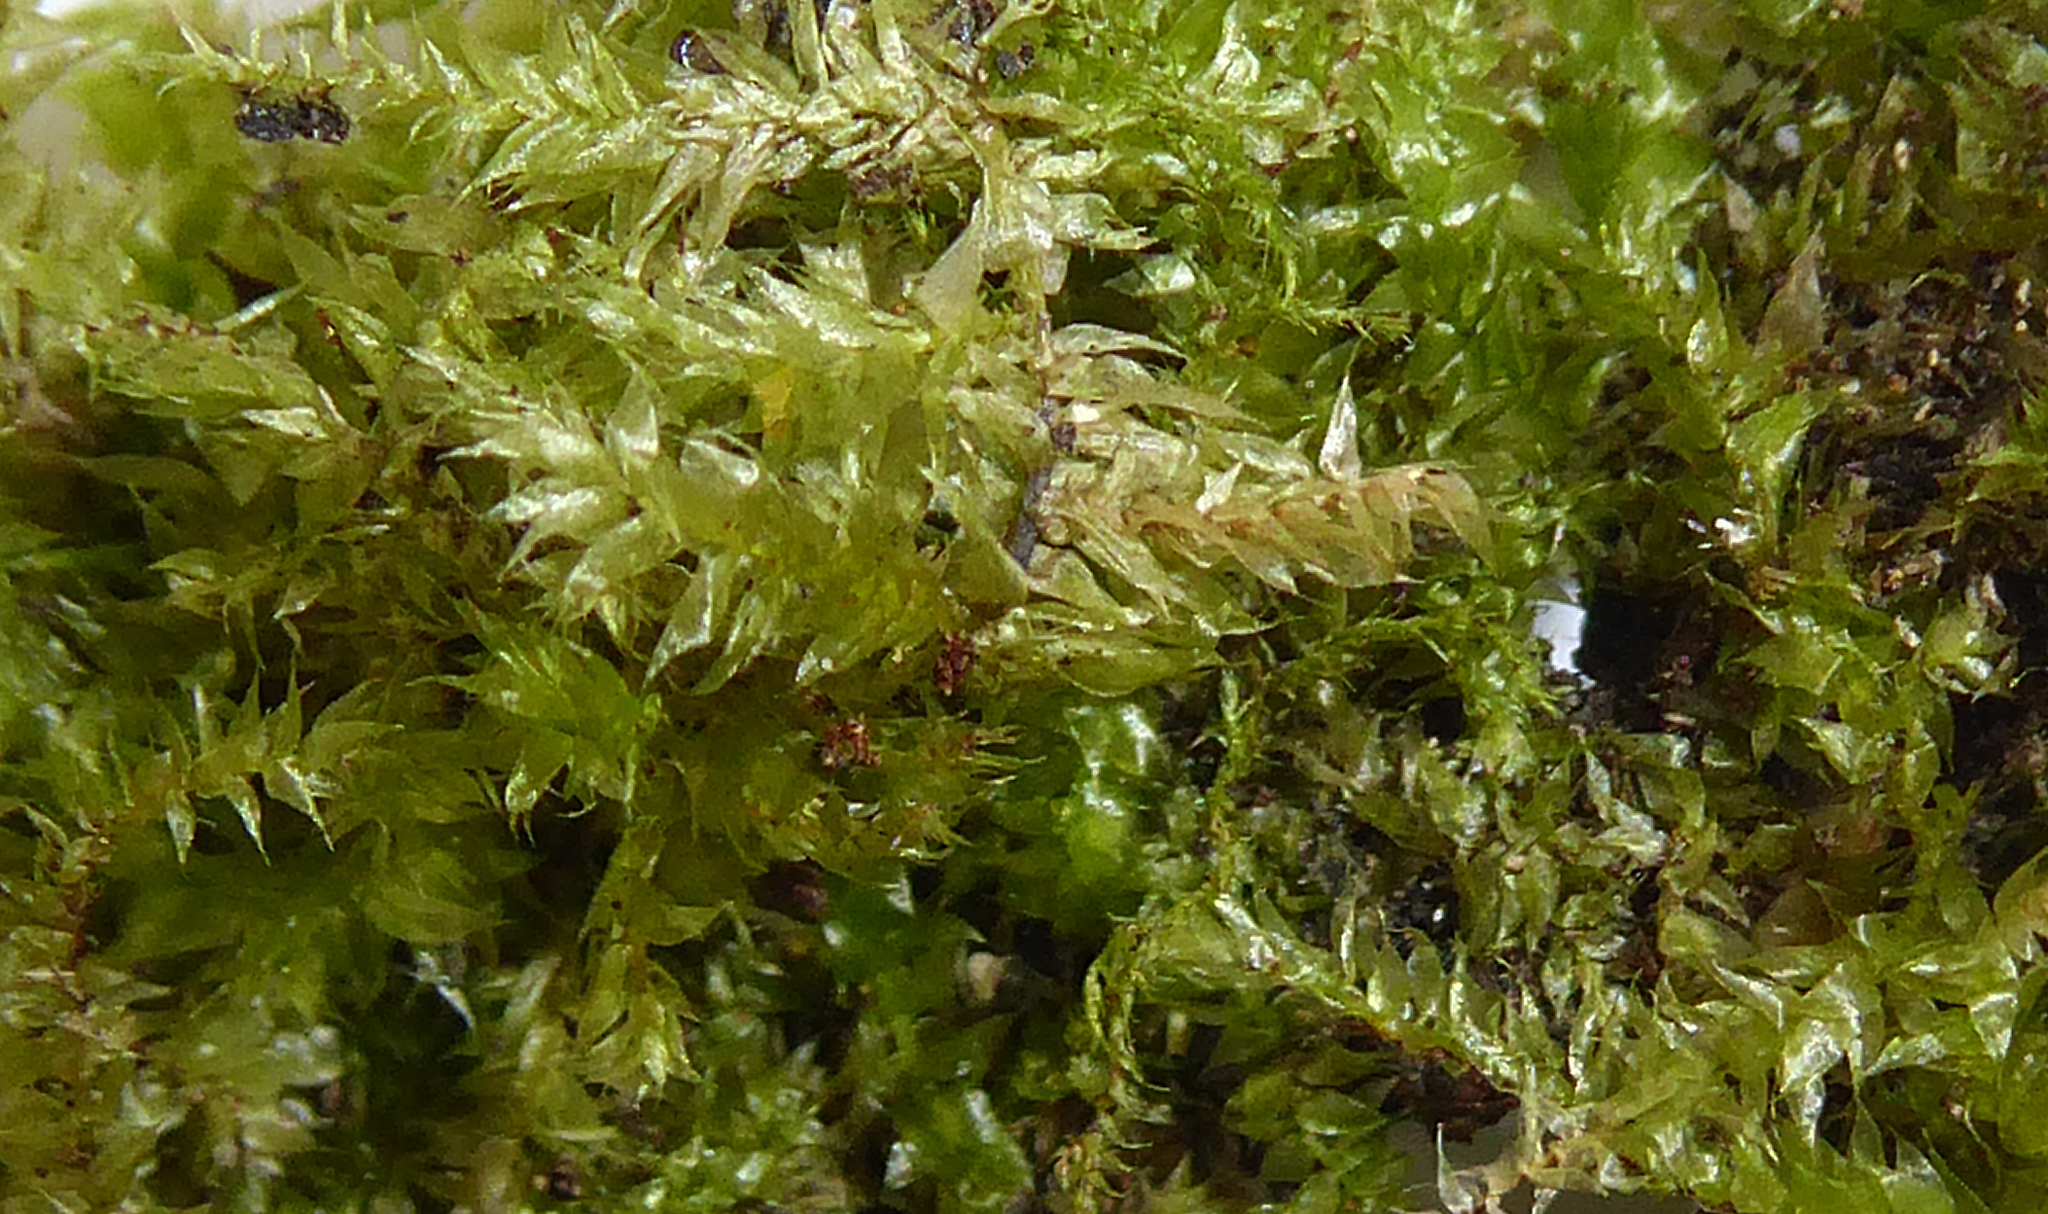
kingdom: Plantae
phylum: Bryophyta
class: Bryopsida
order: Hypnales
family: Brachytheciaceae
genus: Rhynchostegium
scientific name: Rhynchostegium tenuifolium
